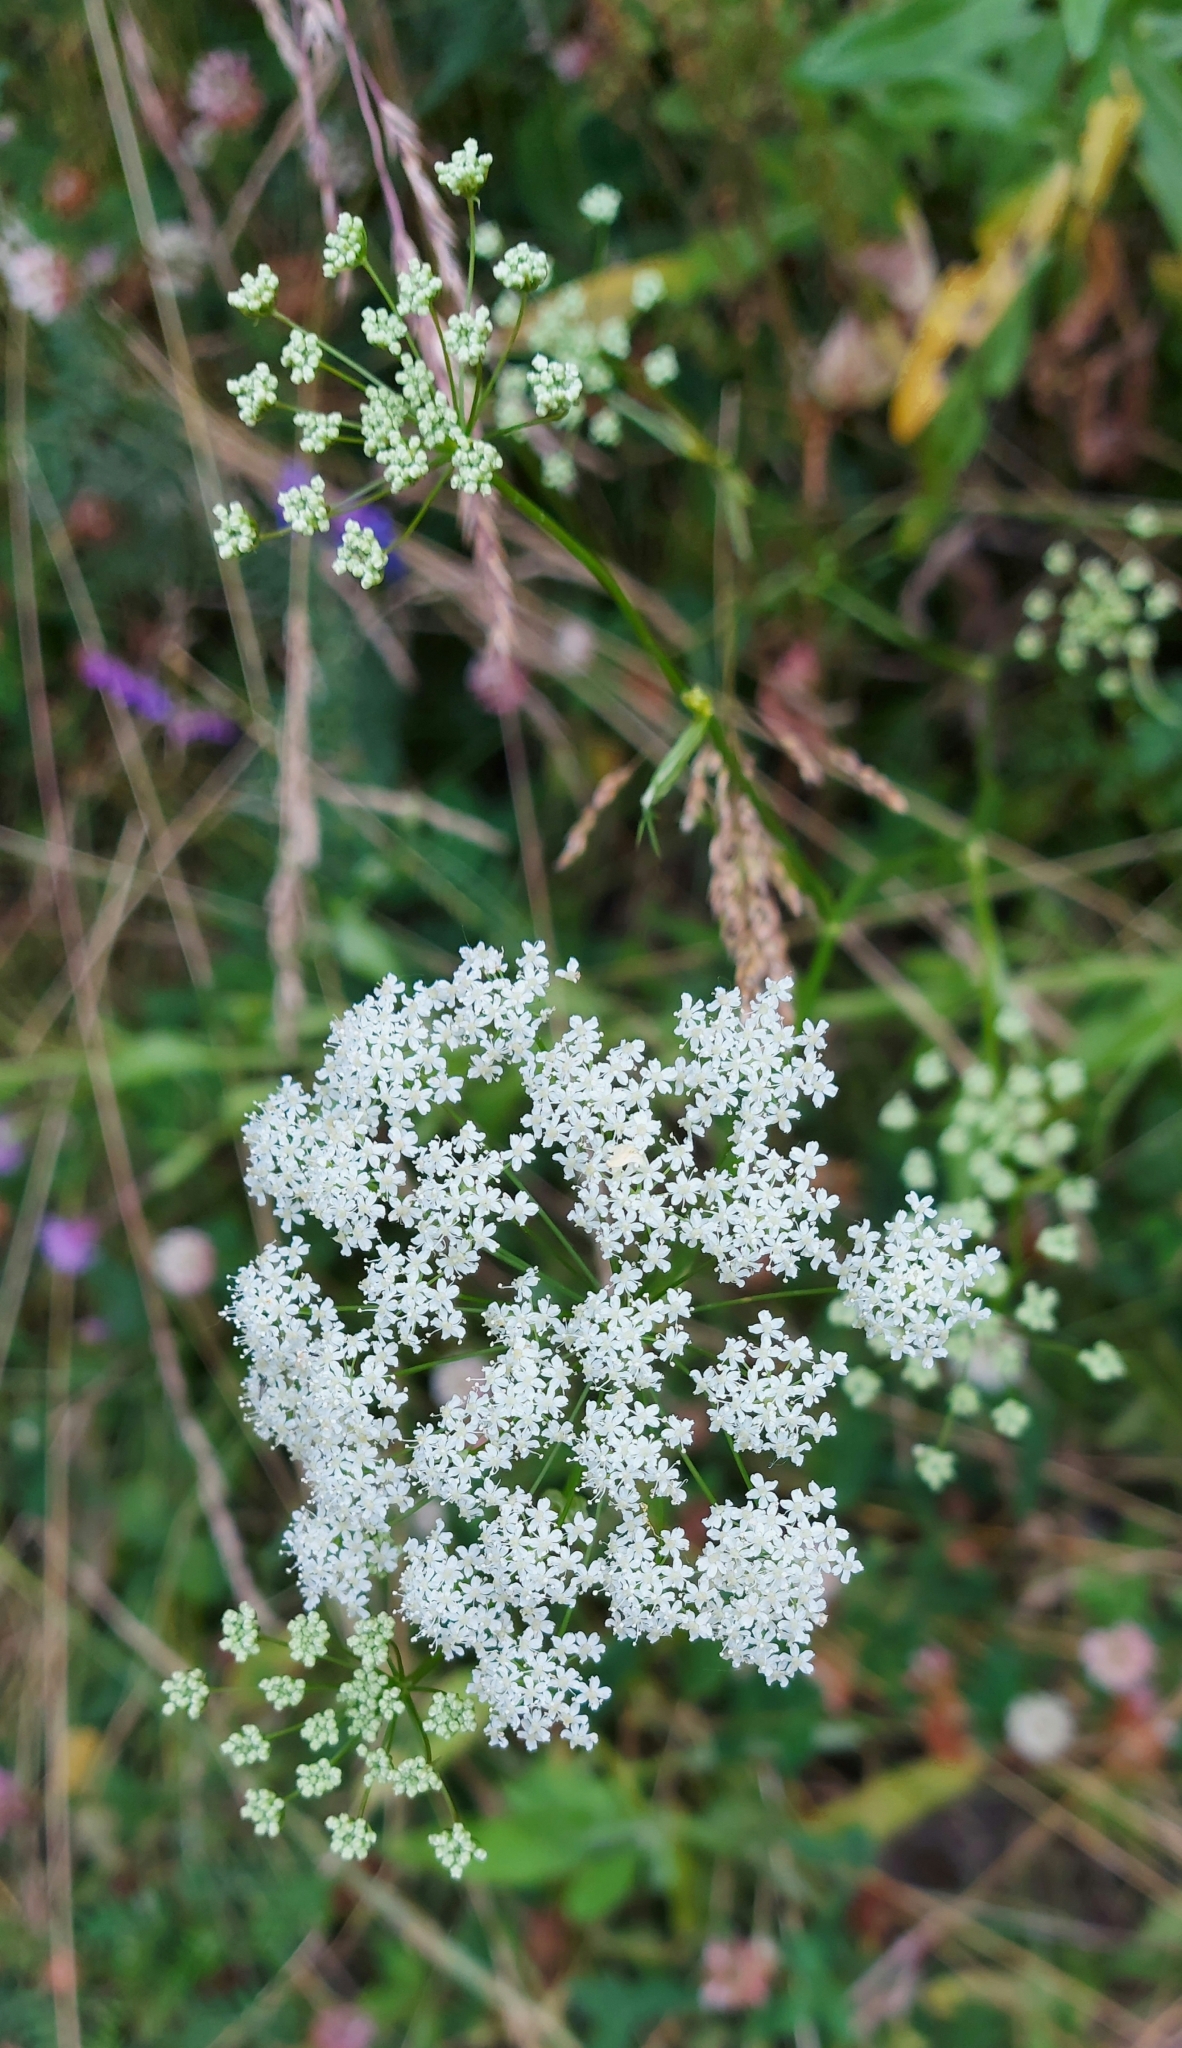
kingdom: Plantae
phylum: Tracheophyta
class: Magnoliopsida
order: Apiales
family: Apiaceae
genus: Pimpinella
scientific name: Pimpinella saxifraga
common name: Burnet-saxifrage
